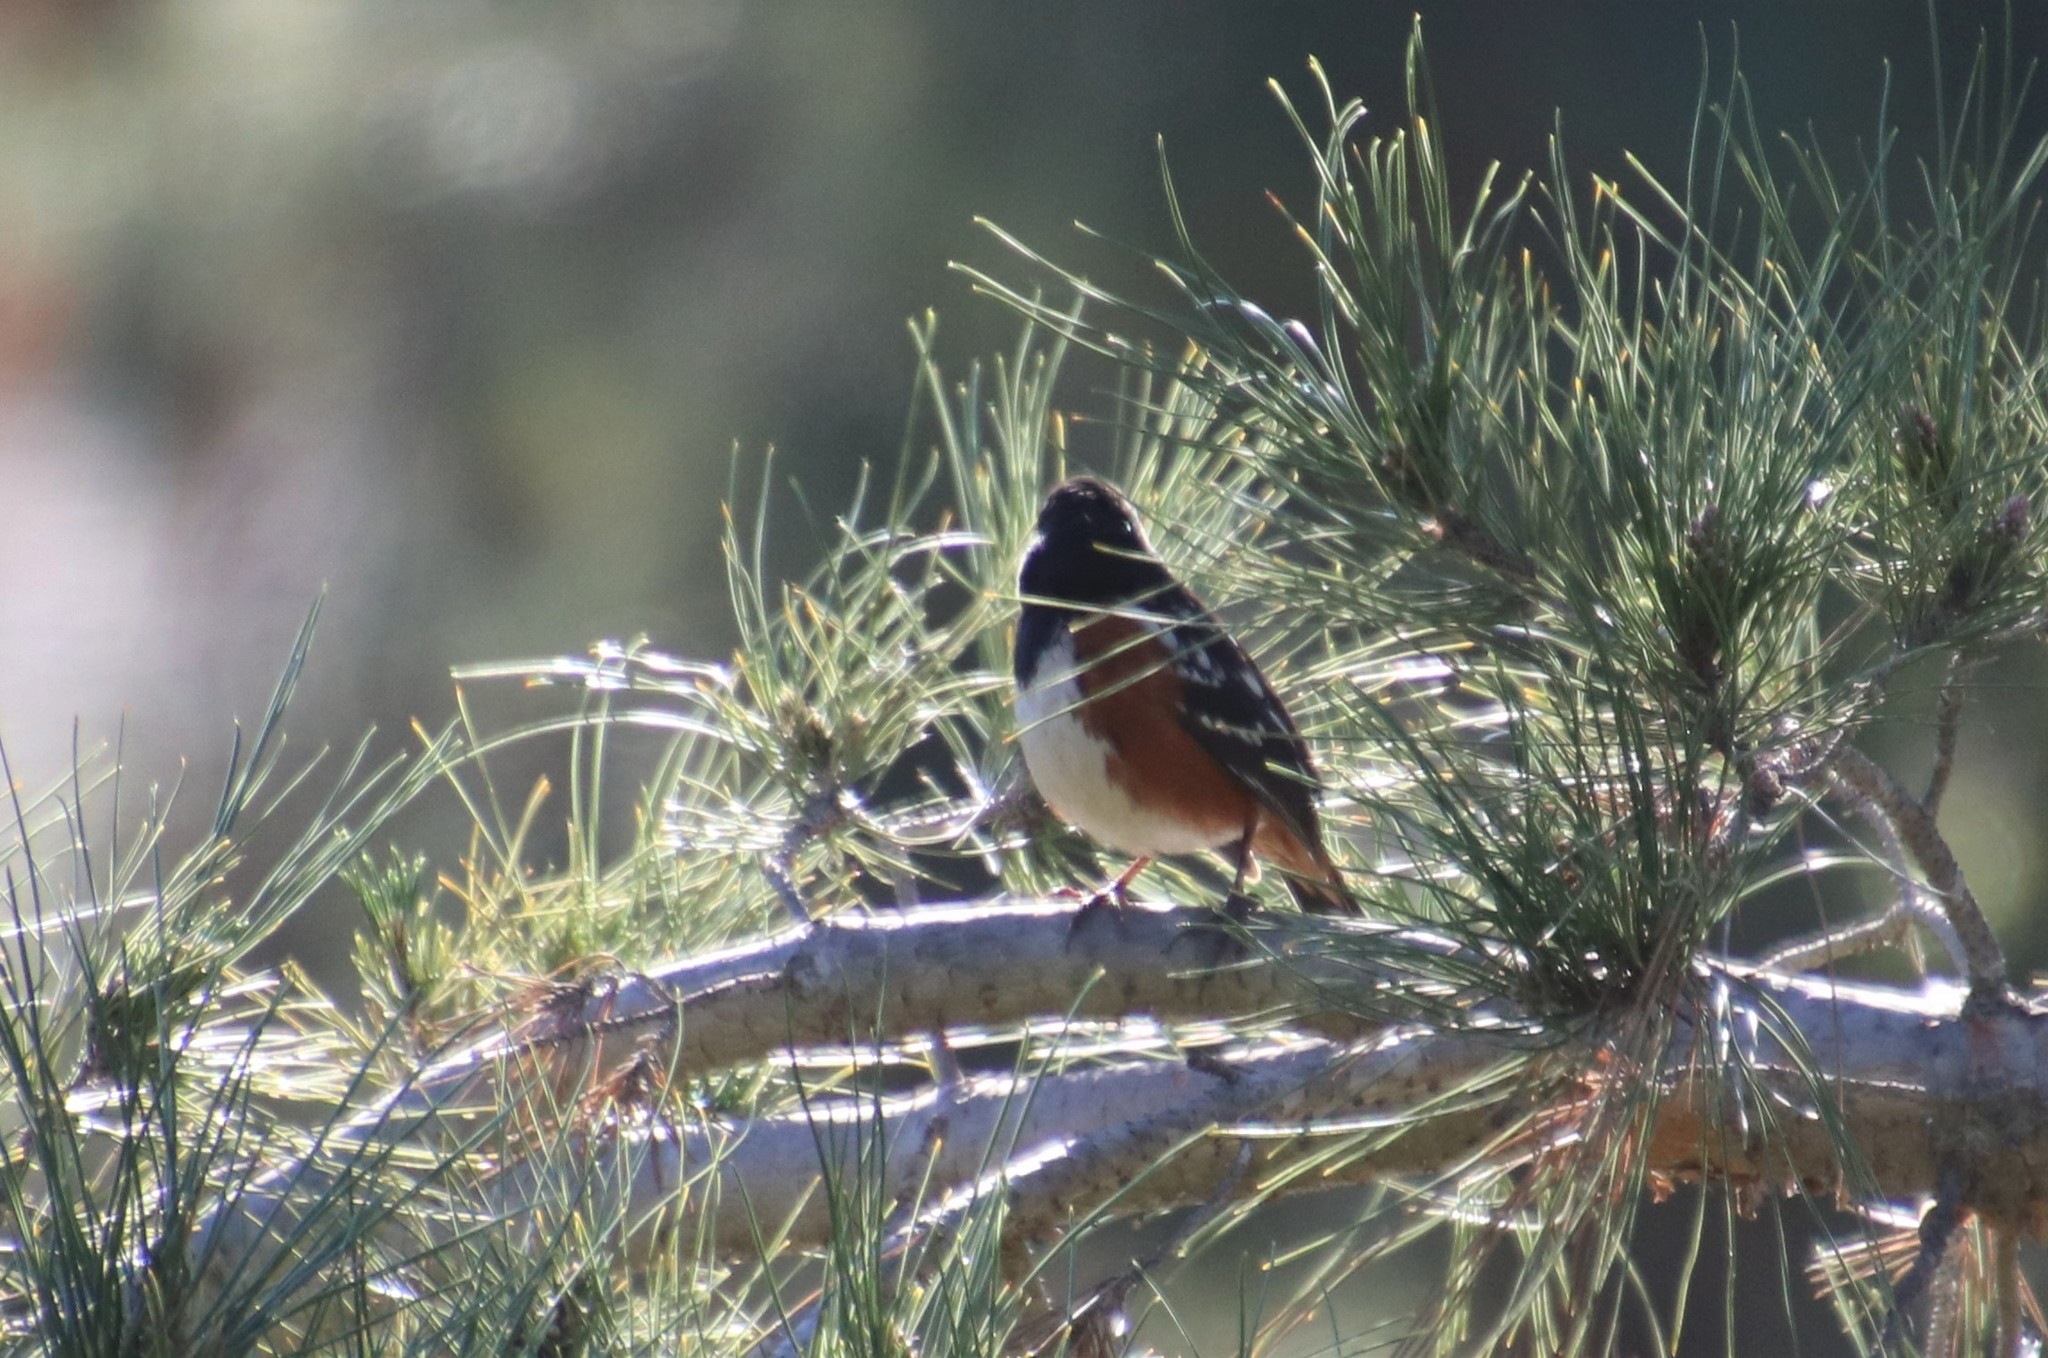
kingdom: Animalia
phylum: Chordata
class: Aves
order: Passeriformes
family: Passerellidae
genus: Pipilo
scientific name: Pipilo maculatus
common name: Spotted towhee
